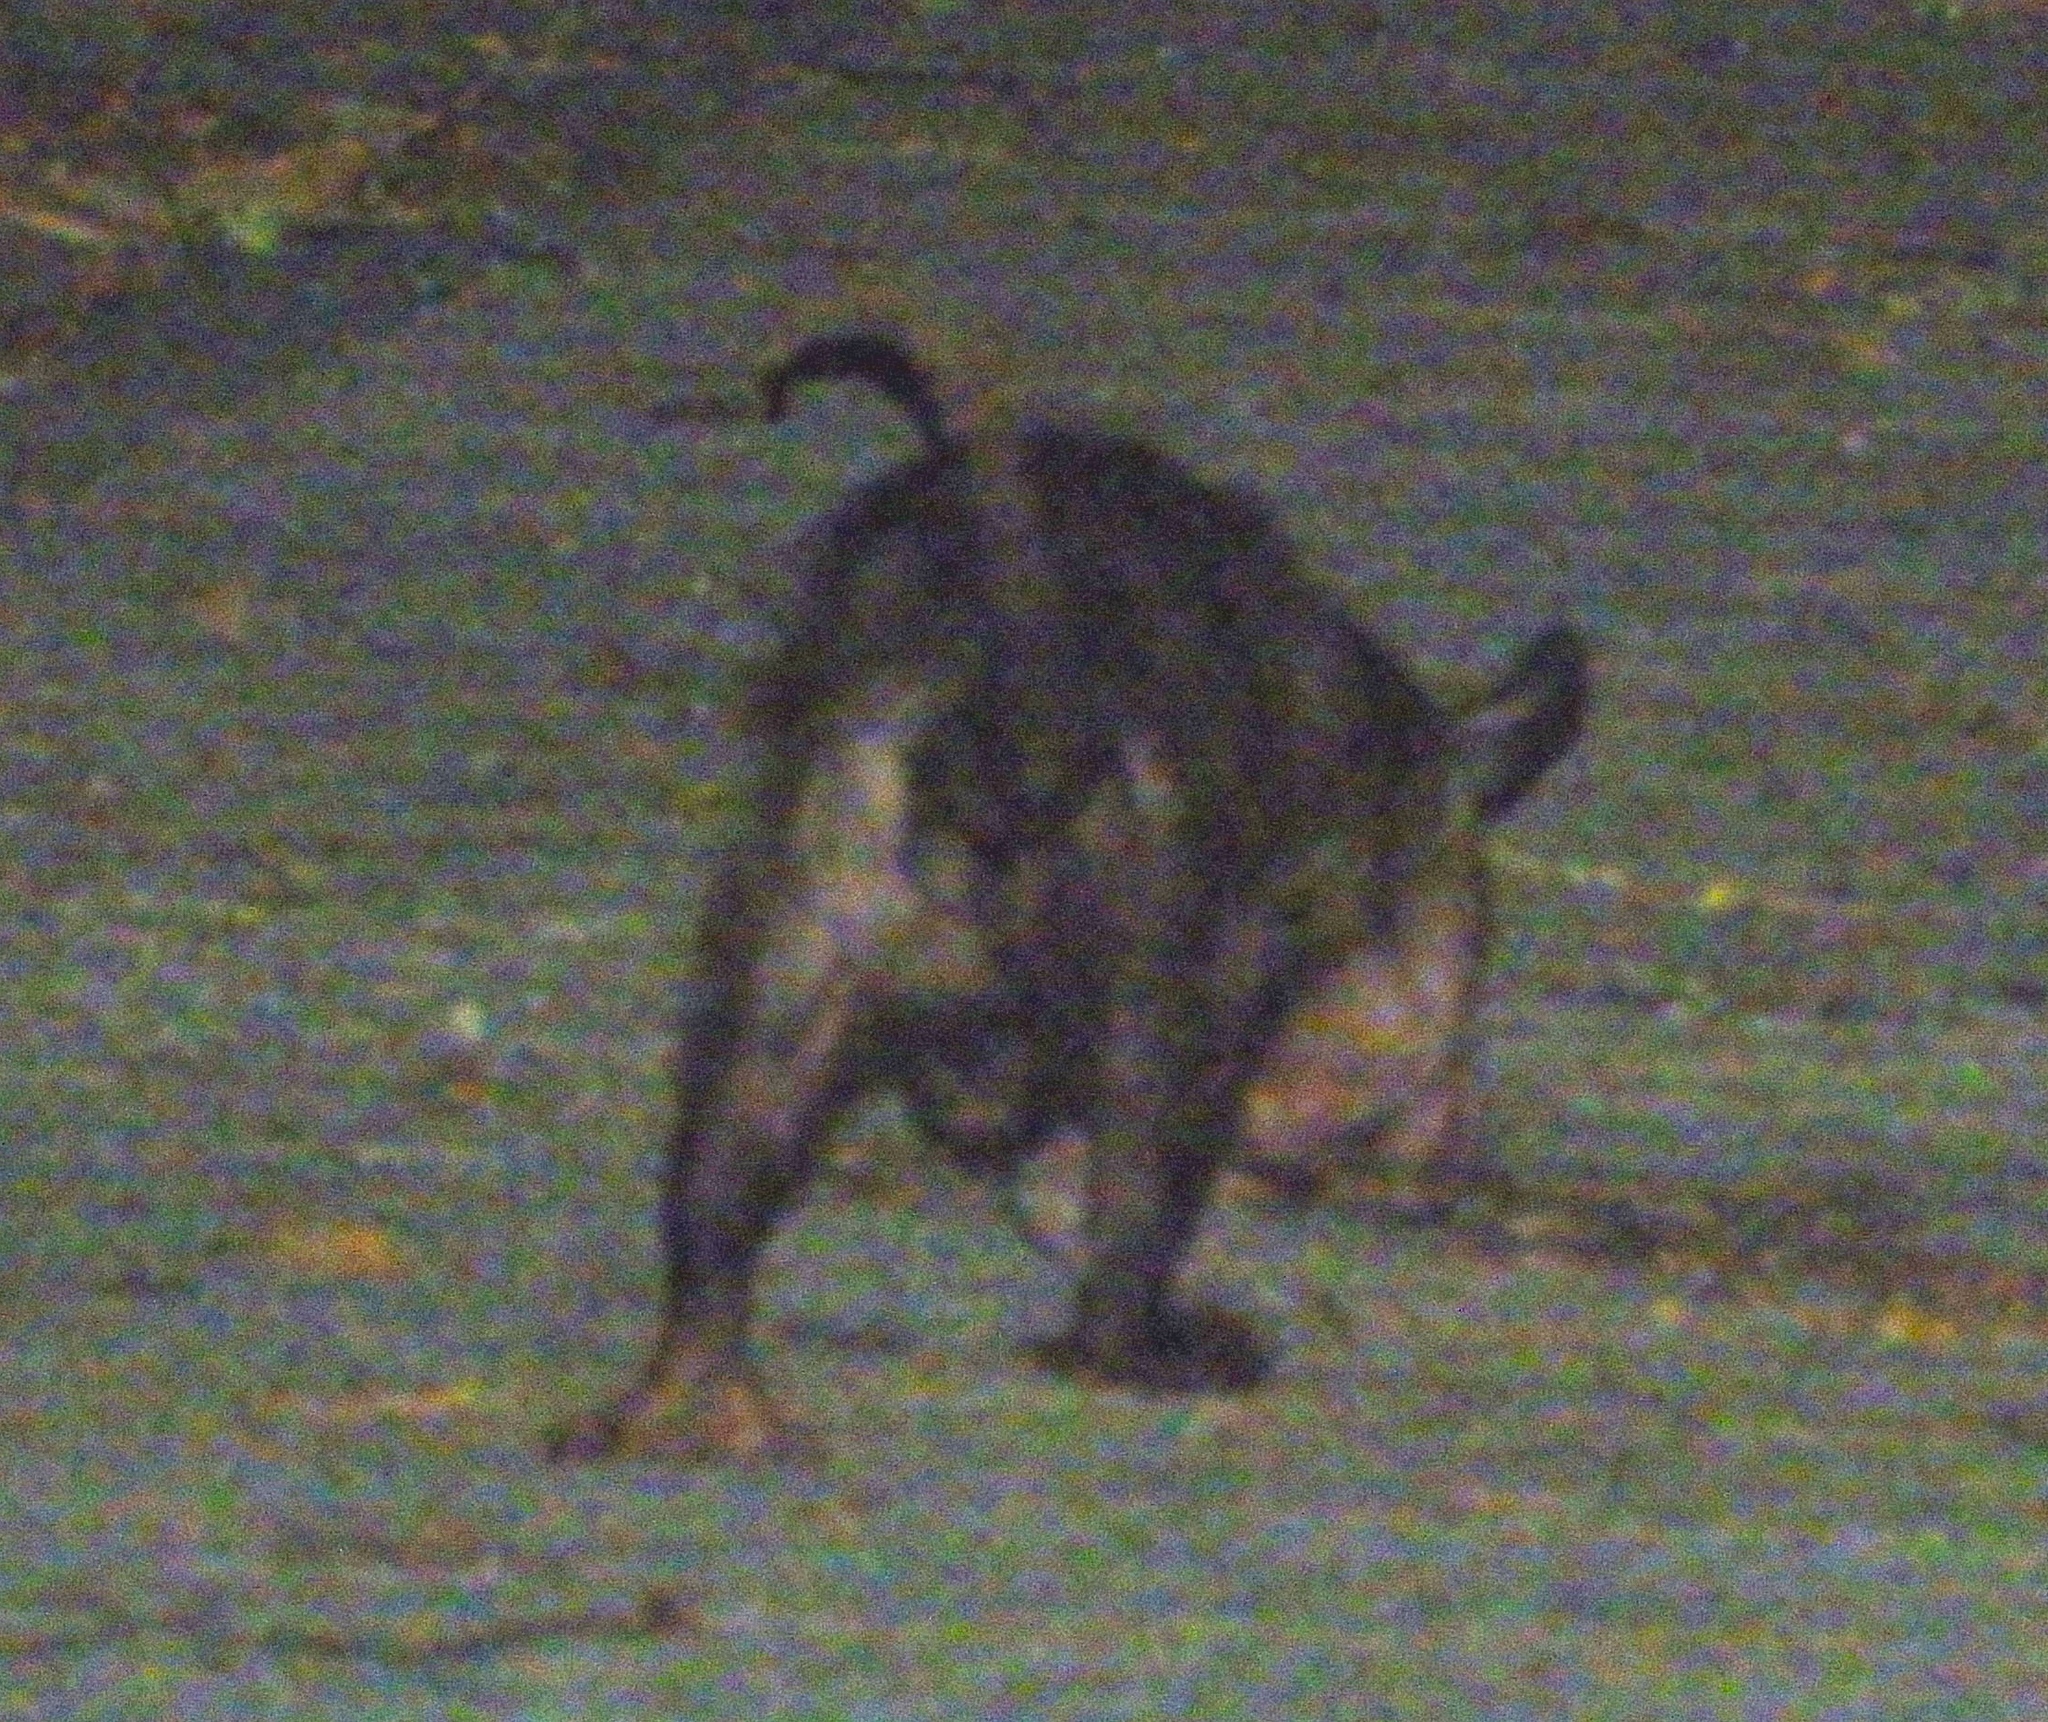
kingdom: Animalia
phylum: Chordata
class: Mammalia
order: Didelphimorphia
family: Didelphidae
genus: Didelphis
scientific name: Didelphis virginiana
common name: Virginia opossum
